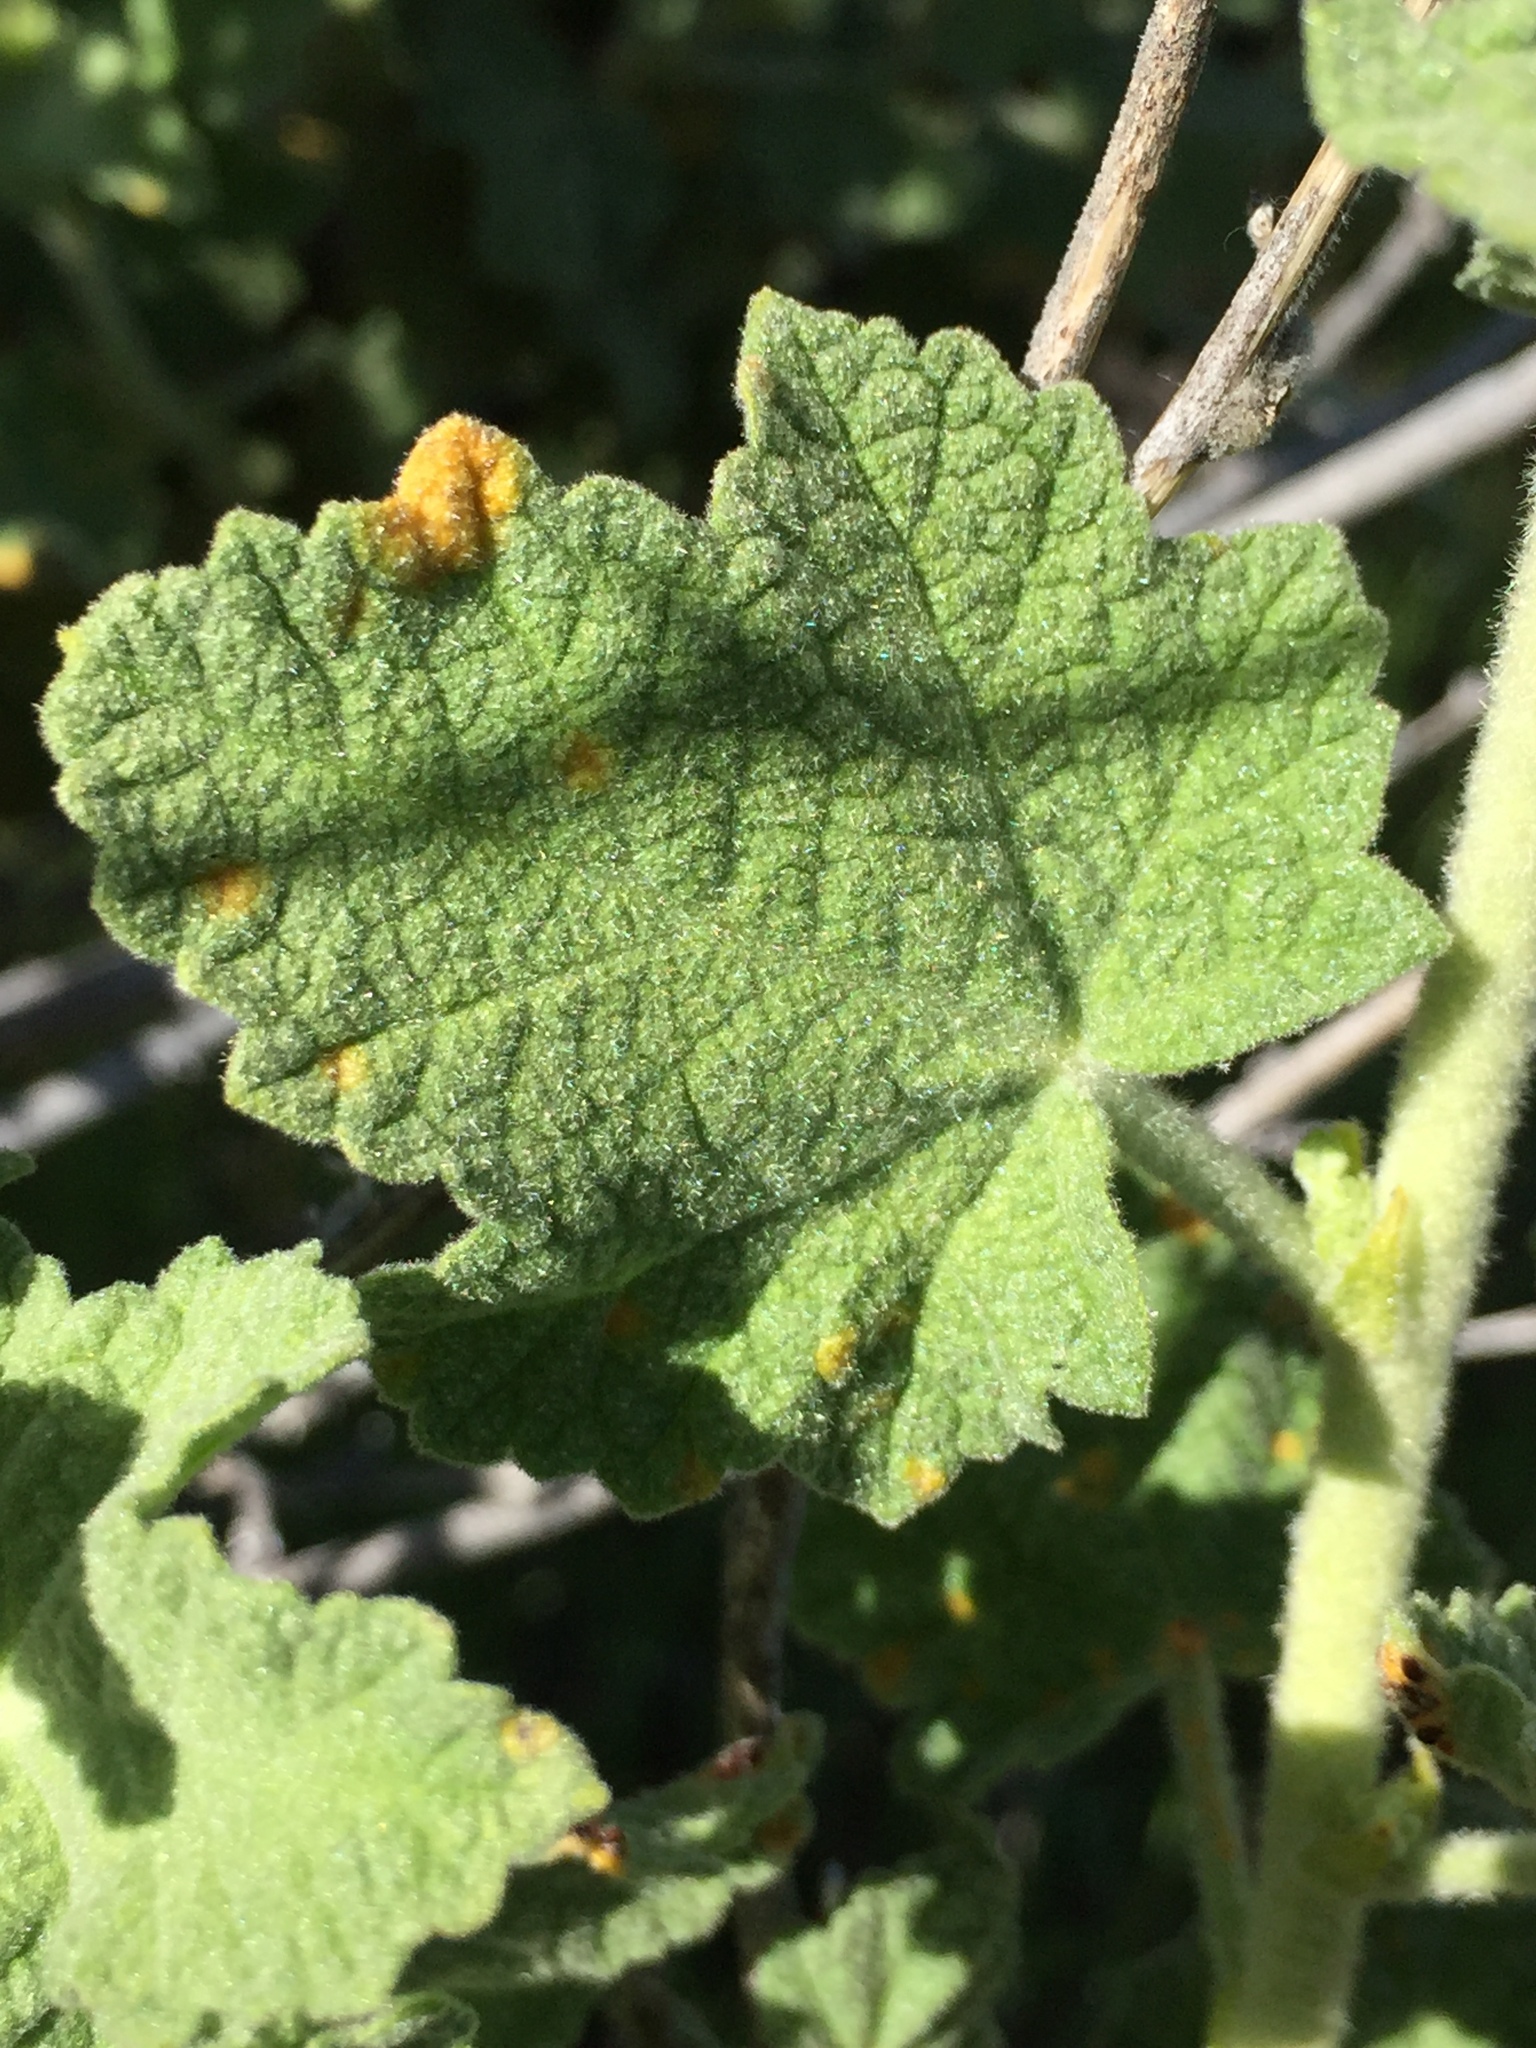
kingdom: Plantae
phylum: Tracheophyta
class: Magnoliopsida
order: Malvales
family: Malvaceae
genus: Malacothamnus
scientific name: Malacothamnus aboriginum
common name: Indian valley bush-mallow
